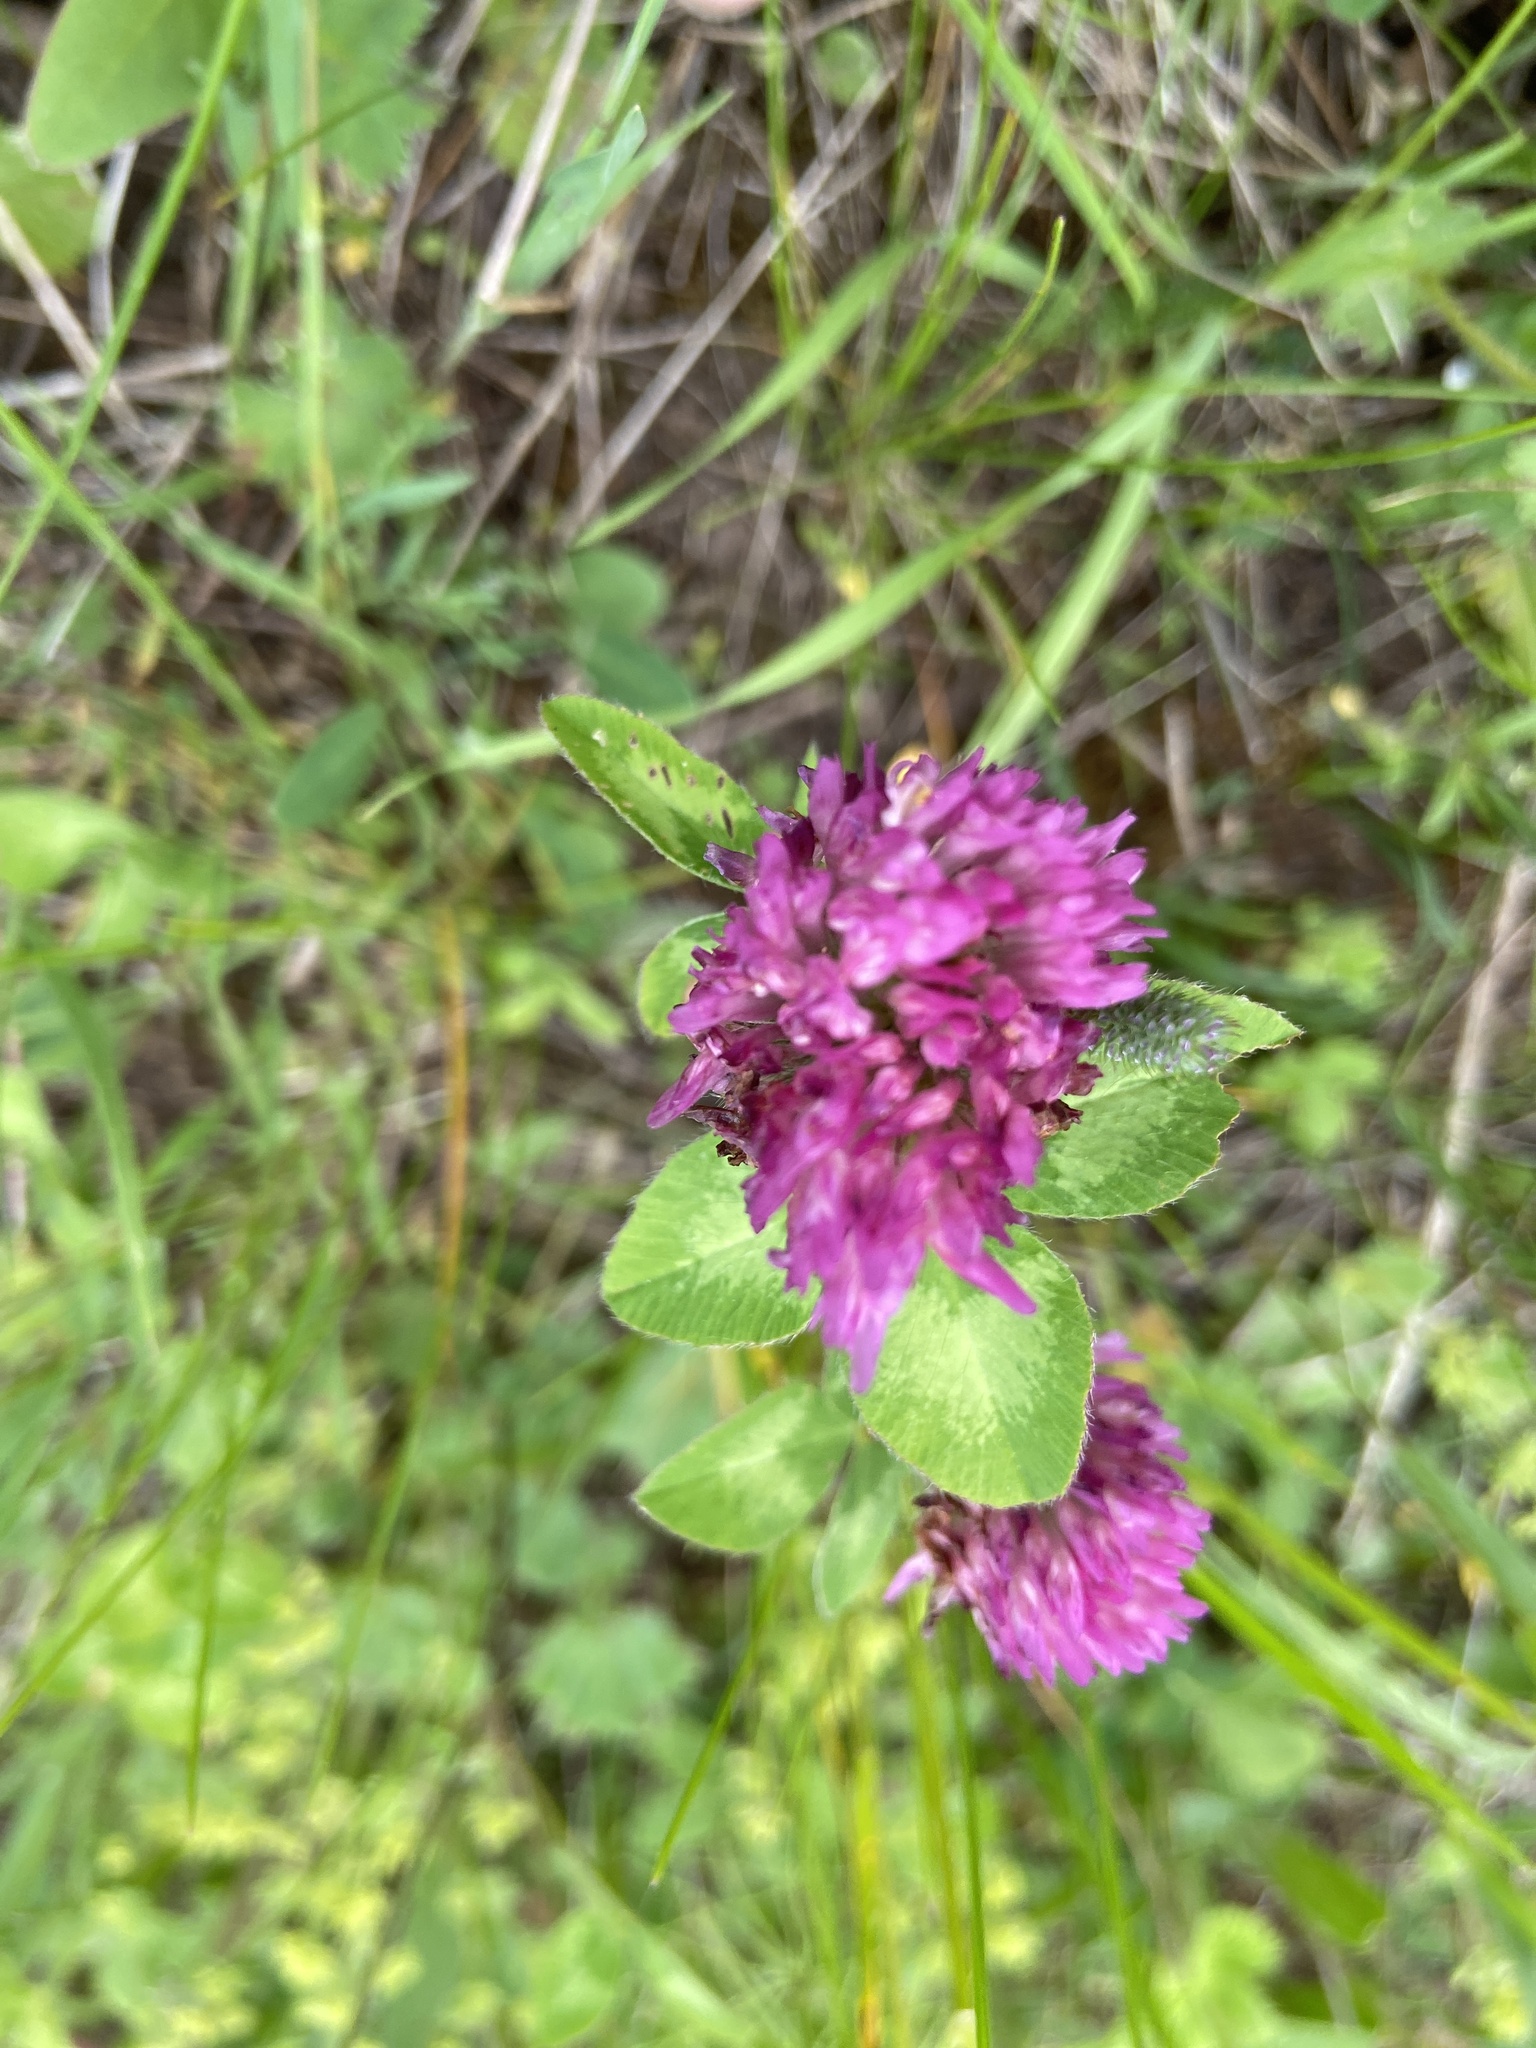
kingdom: Plantae
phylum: Tracheophyta
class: Magnoliopsida
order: Fabales
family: Fabaceae
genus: Trifolium
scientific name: Trifolium pratense
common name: Red clover
